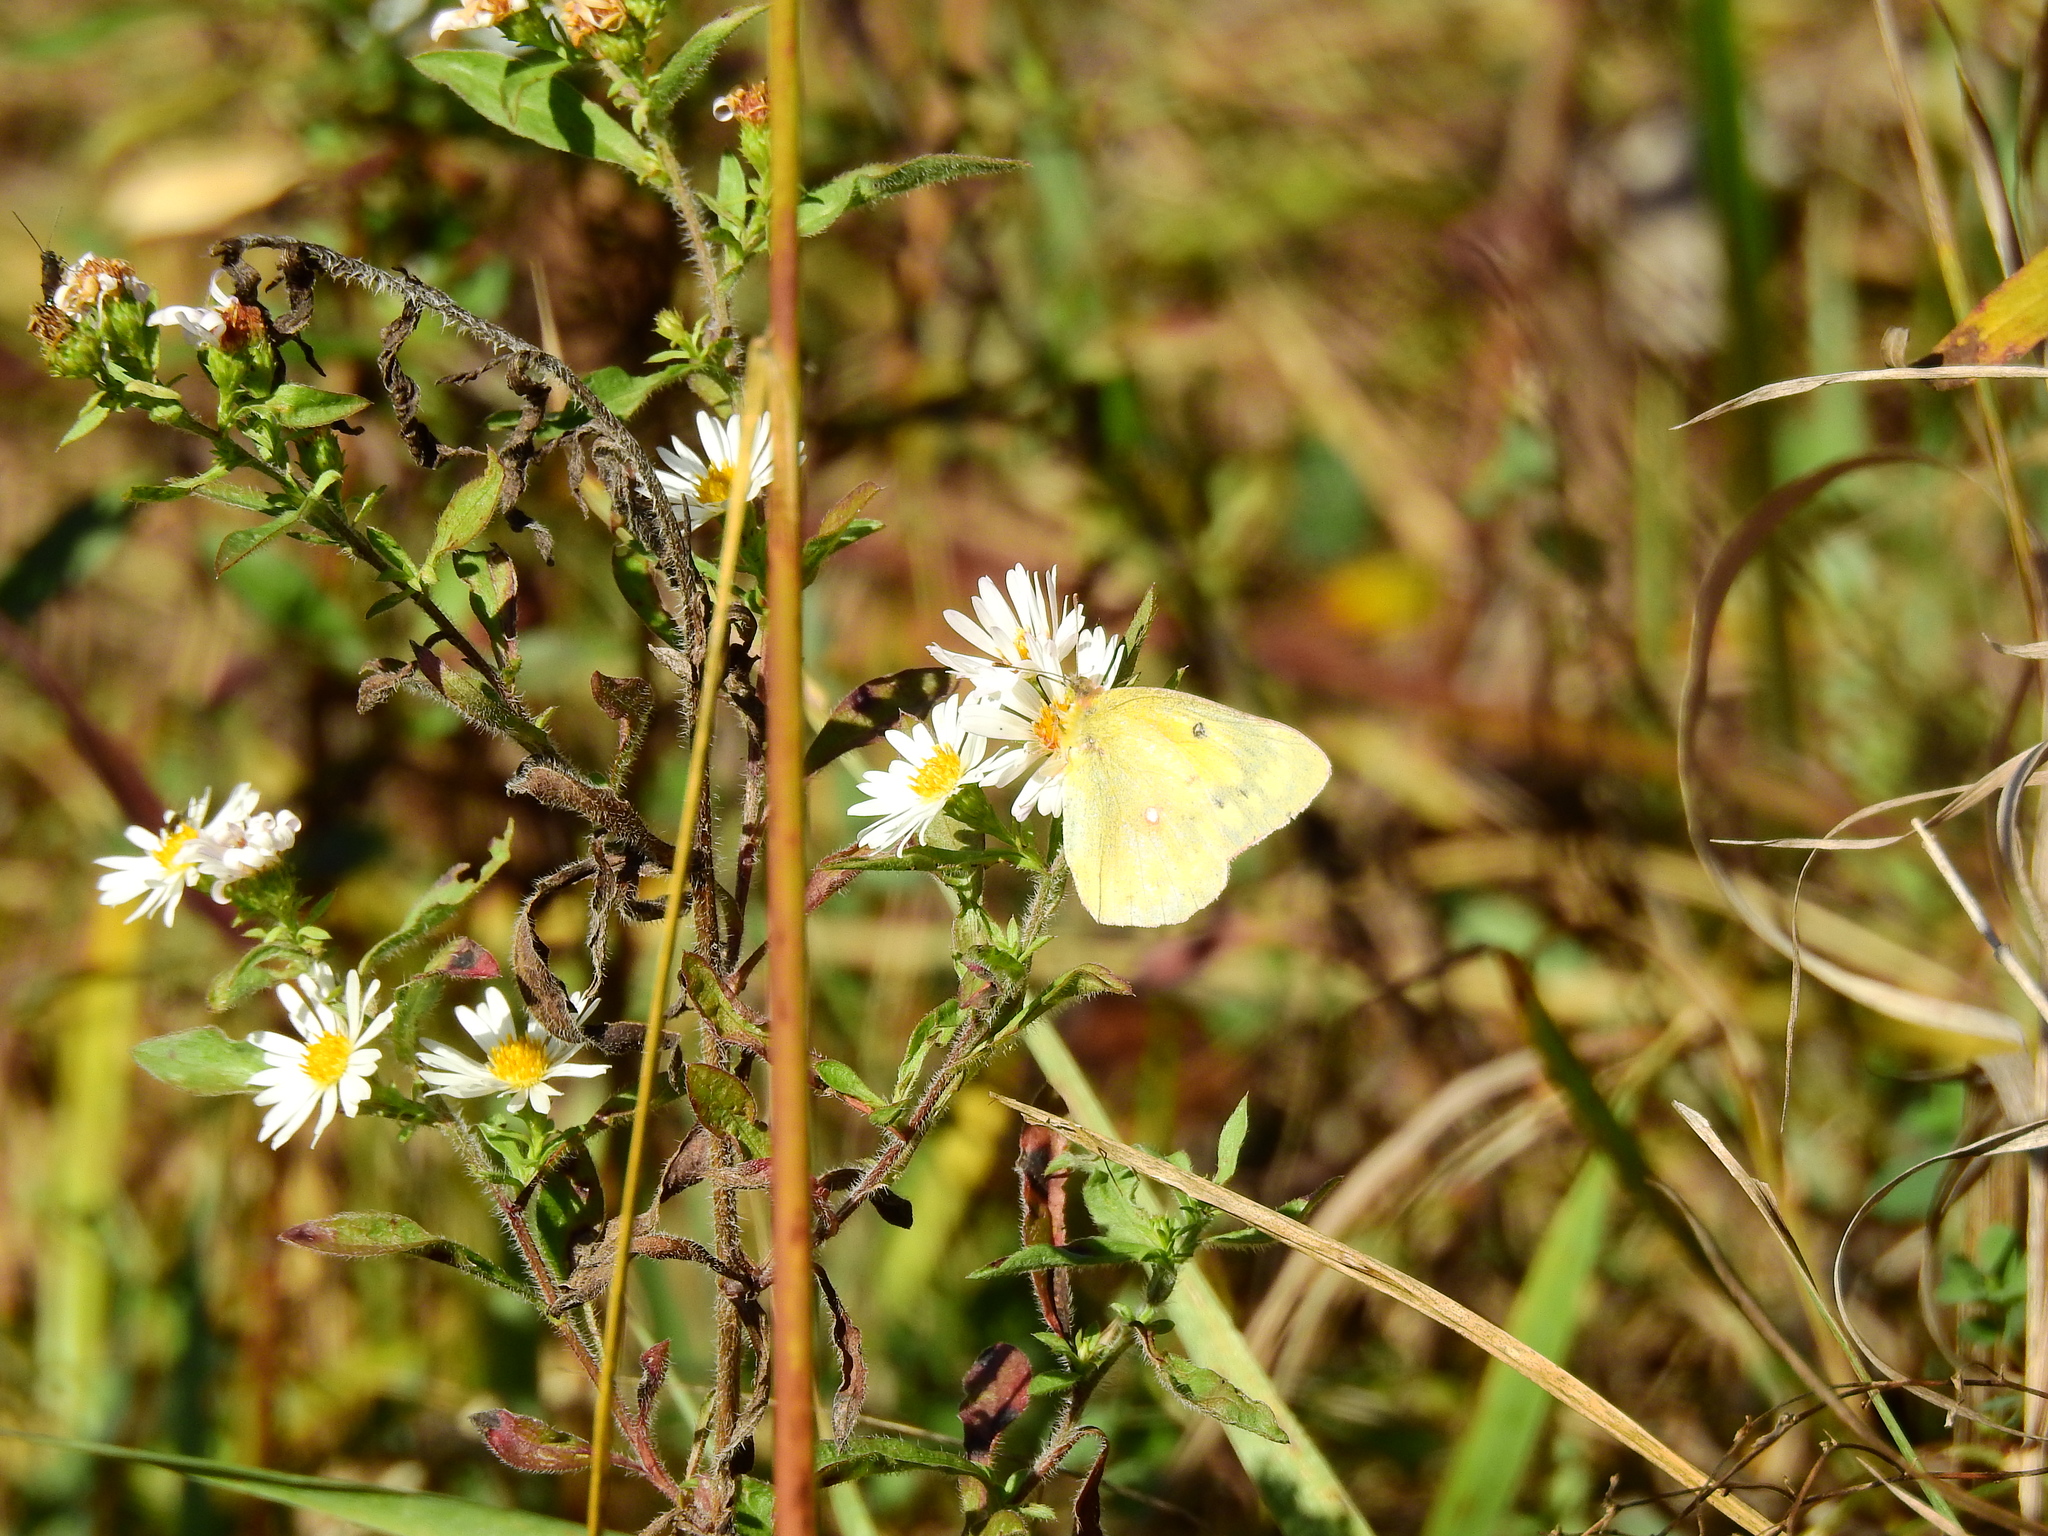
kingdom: Animalia
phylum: Arthropoda
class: Insecta
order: Lepidoptera
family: Pieridae
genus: Colias
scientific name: Colias eurytheme
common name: Alfalfa butterfly
